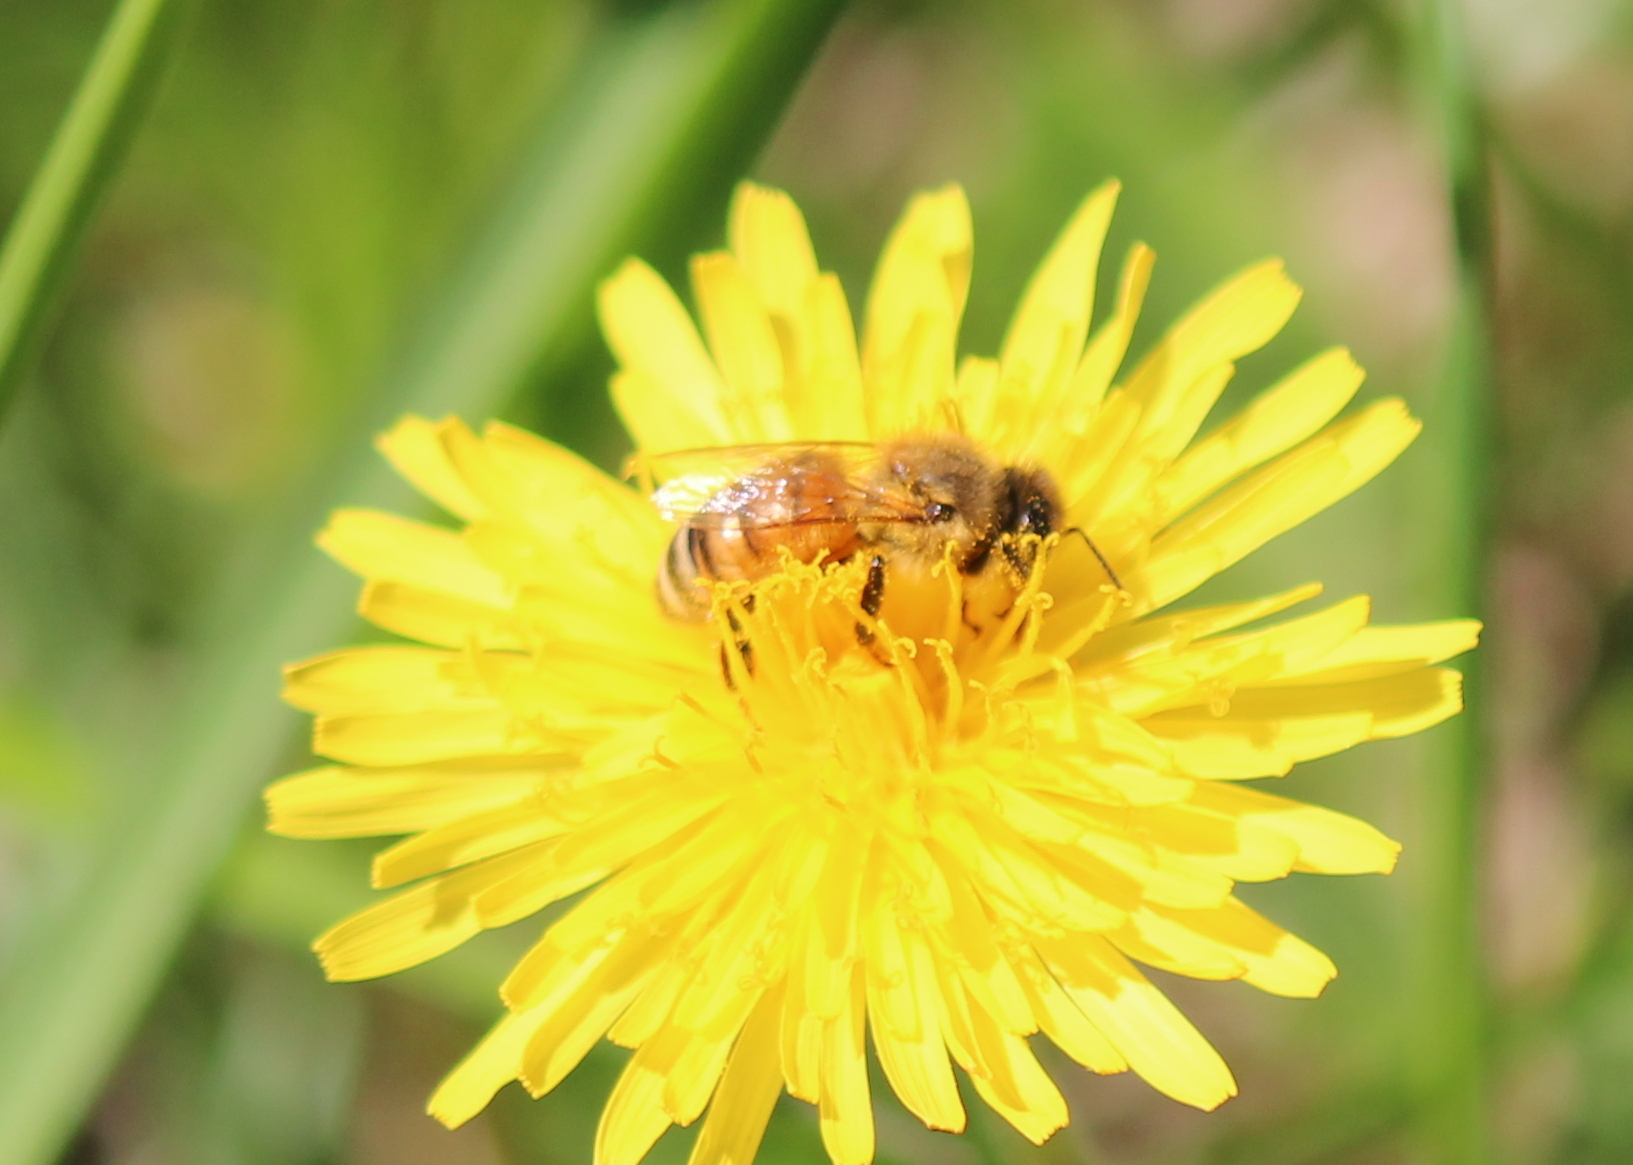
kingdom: Animalia
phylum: Arthropoda
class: Insecta
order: Hymenoptera
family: Apidae
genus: Apis
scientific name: Apis mellifera
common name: Honey bee
